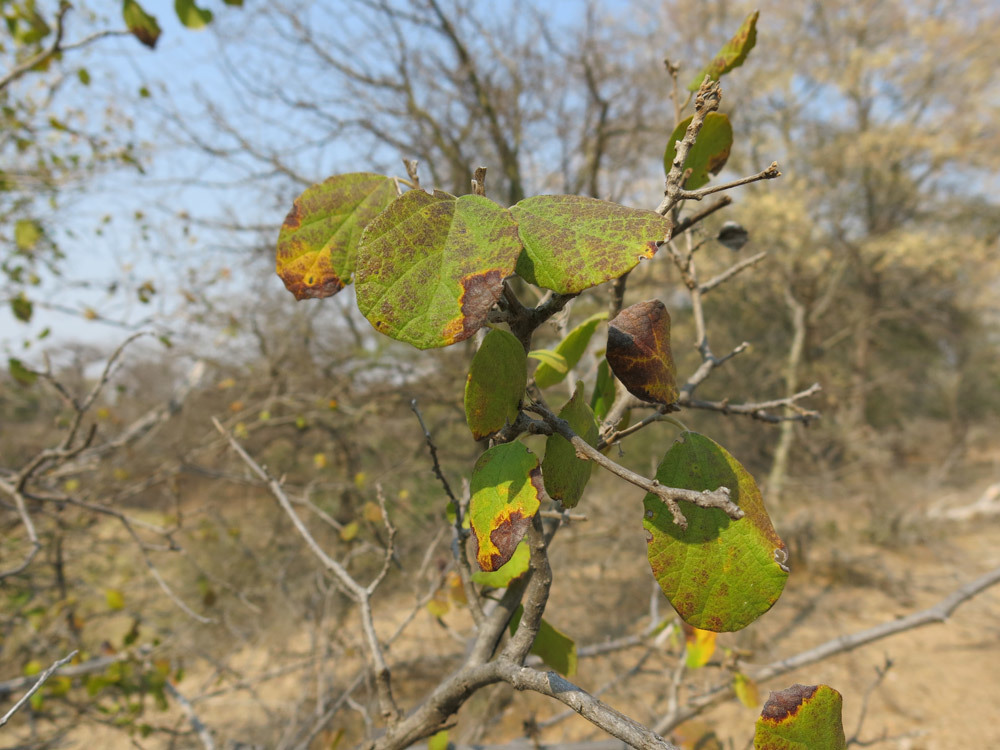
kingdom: Plantae
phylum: Tracheophyta
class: Magnoliopsida
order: Boraginales
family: Cordiaceae
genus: Cordia
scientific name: Cordia monoica
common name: Snot berry
